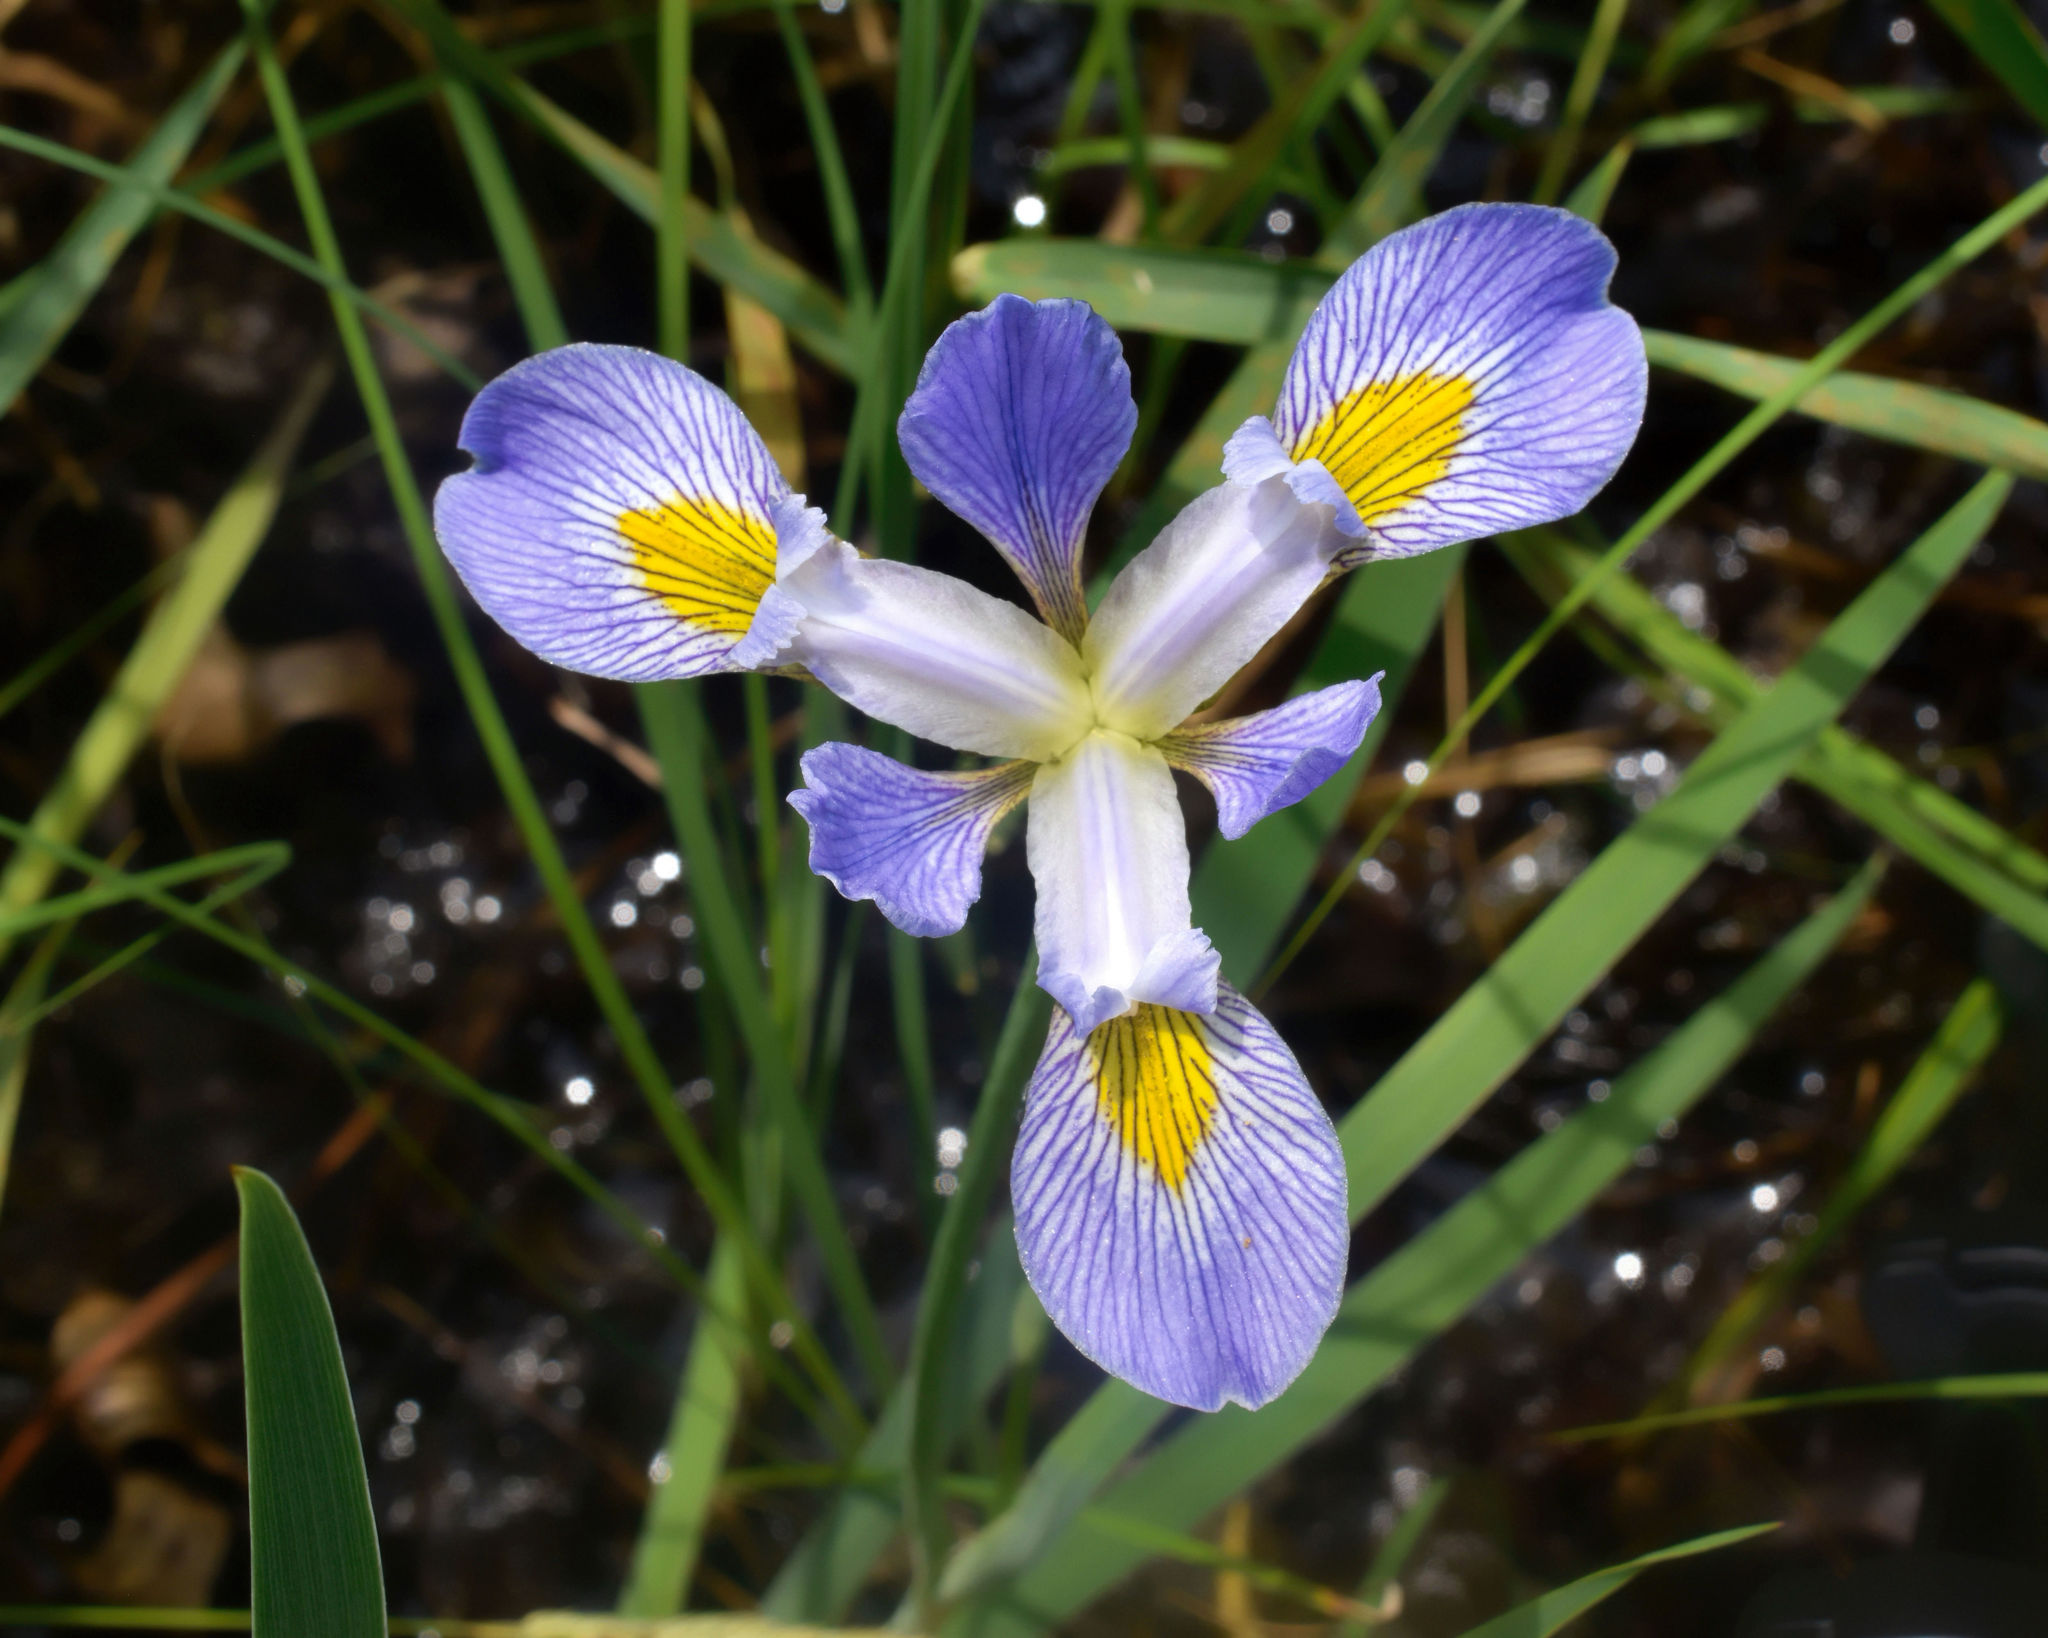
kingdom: Plantae
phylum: Tracheophyta
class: Liliopsida
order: Asparagales
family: Iridaceae
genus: Iris
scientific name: Iris virginica
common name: Southern blue flag
